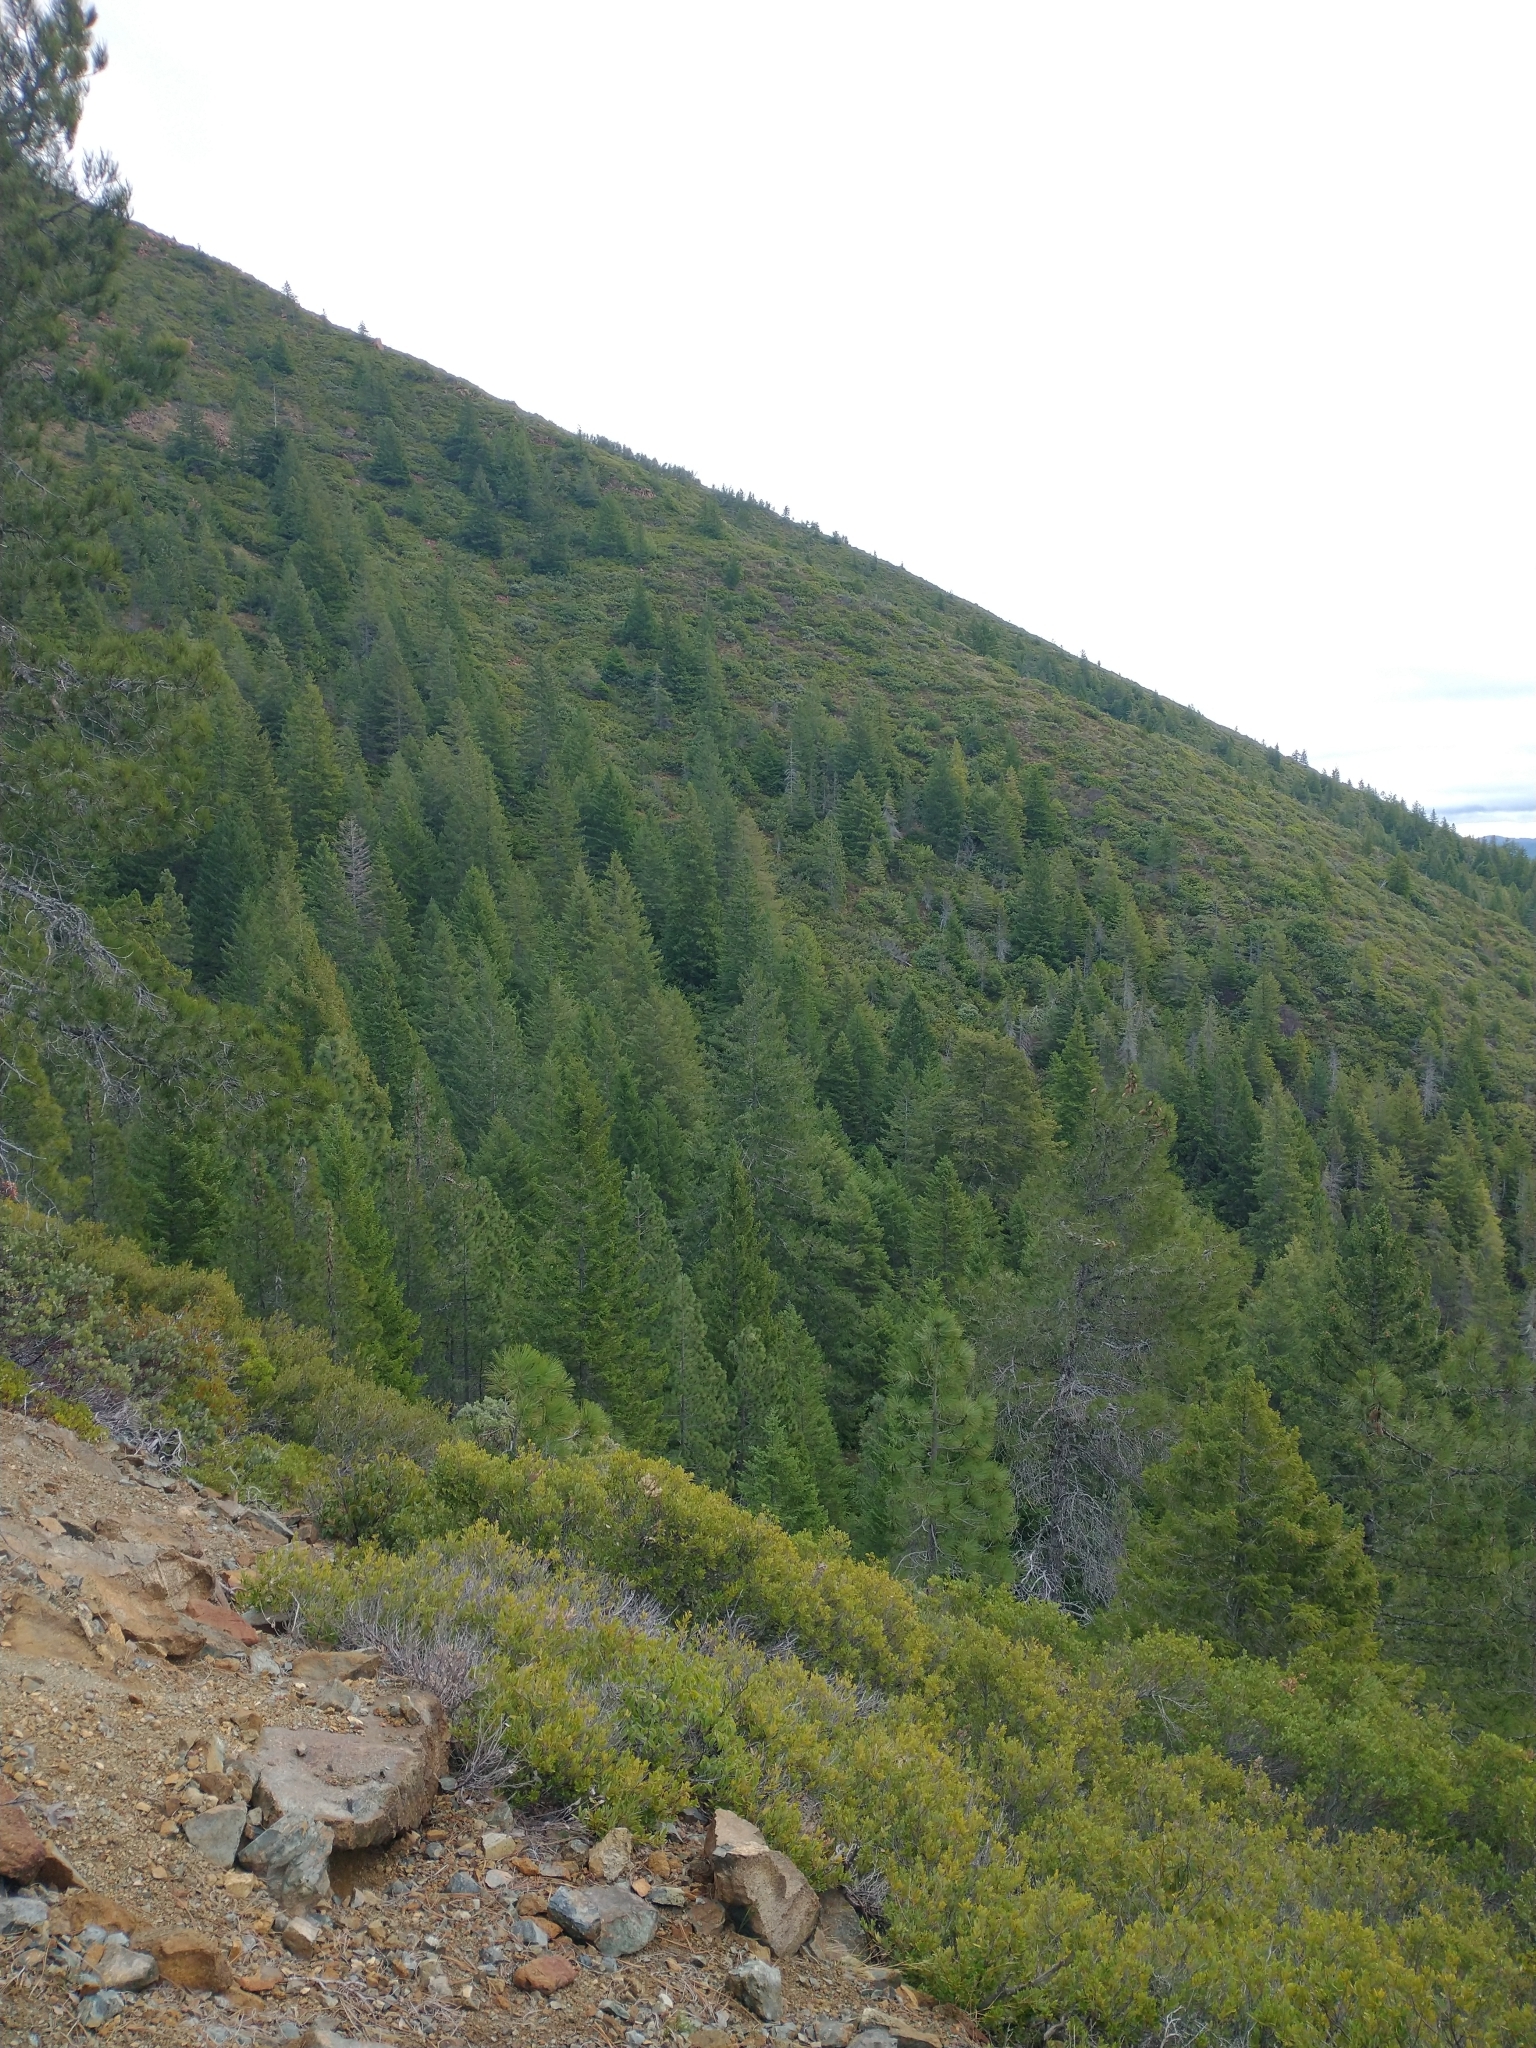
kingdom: Plantae
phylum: Tracheophyta
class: Pinopsida
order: Pinales
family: Pinaceae
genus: Pseudotsuga
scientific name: Pseudotsuga menziesii
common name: Douglas fir
